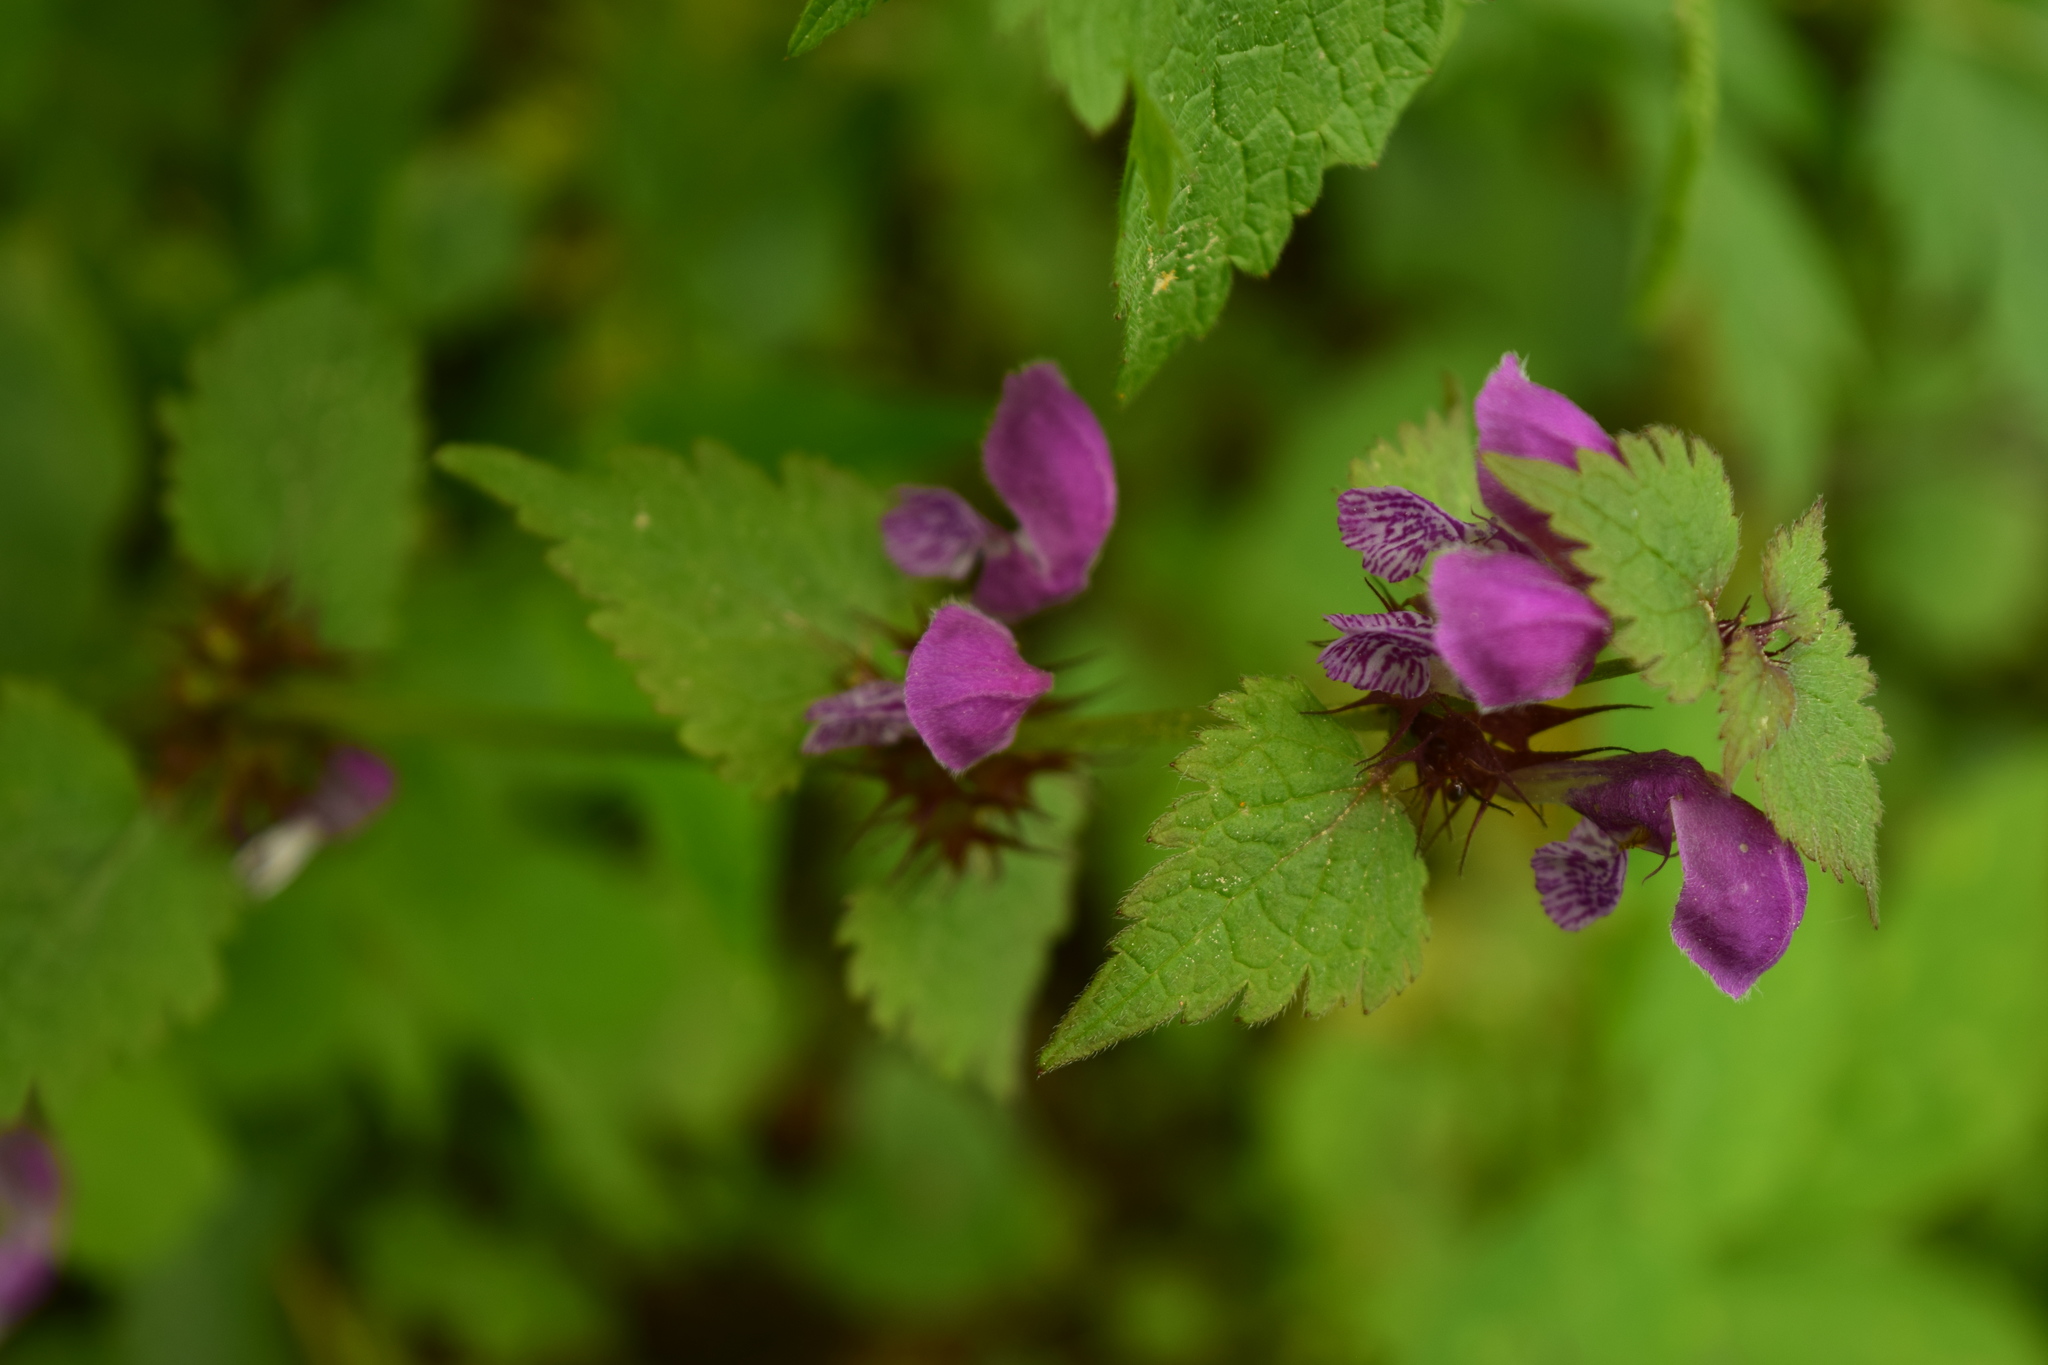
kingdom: Plantae
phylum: Tracheophyta
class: Magnoliopsida
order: Lamiales
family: Lamiaceae
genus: Lamium
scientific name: Lamium maculatum
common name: Spotted dead-nettle
